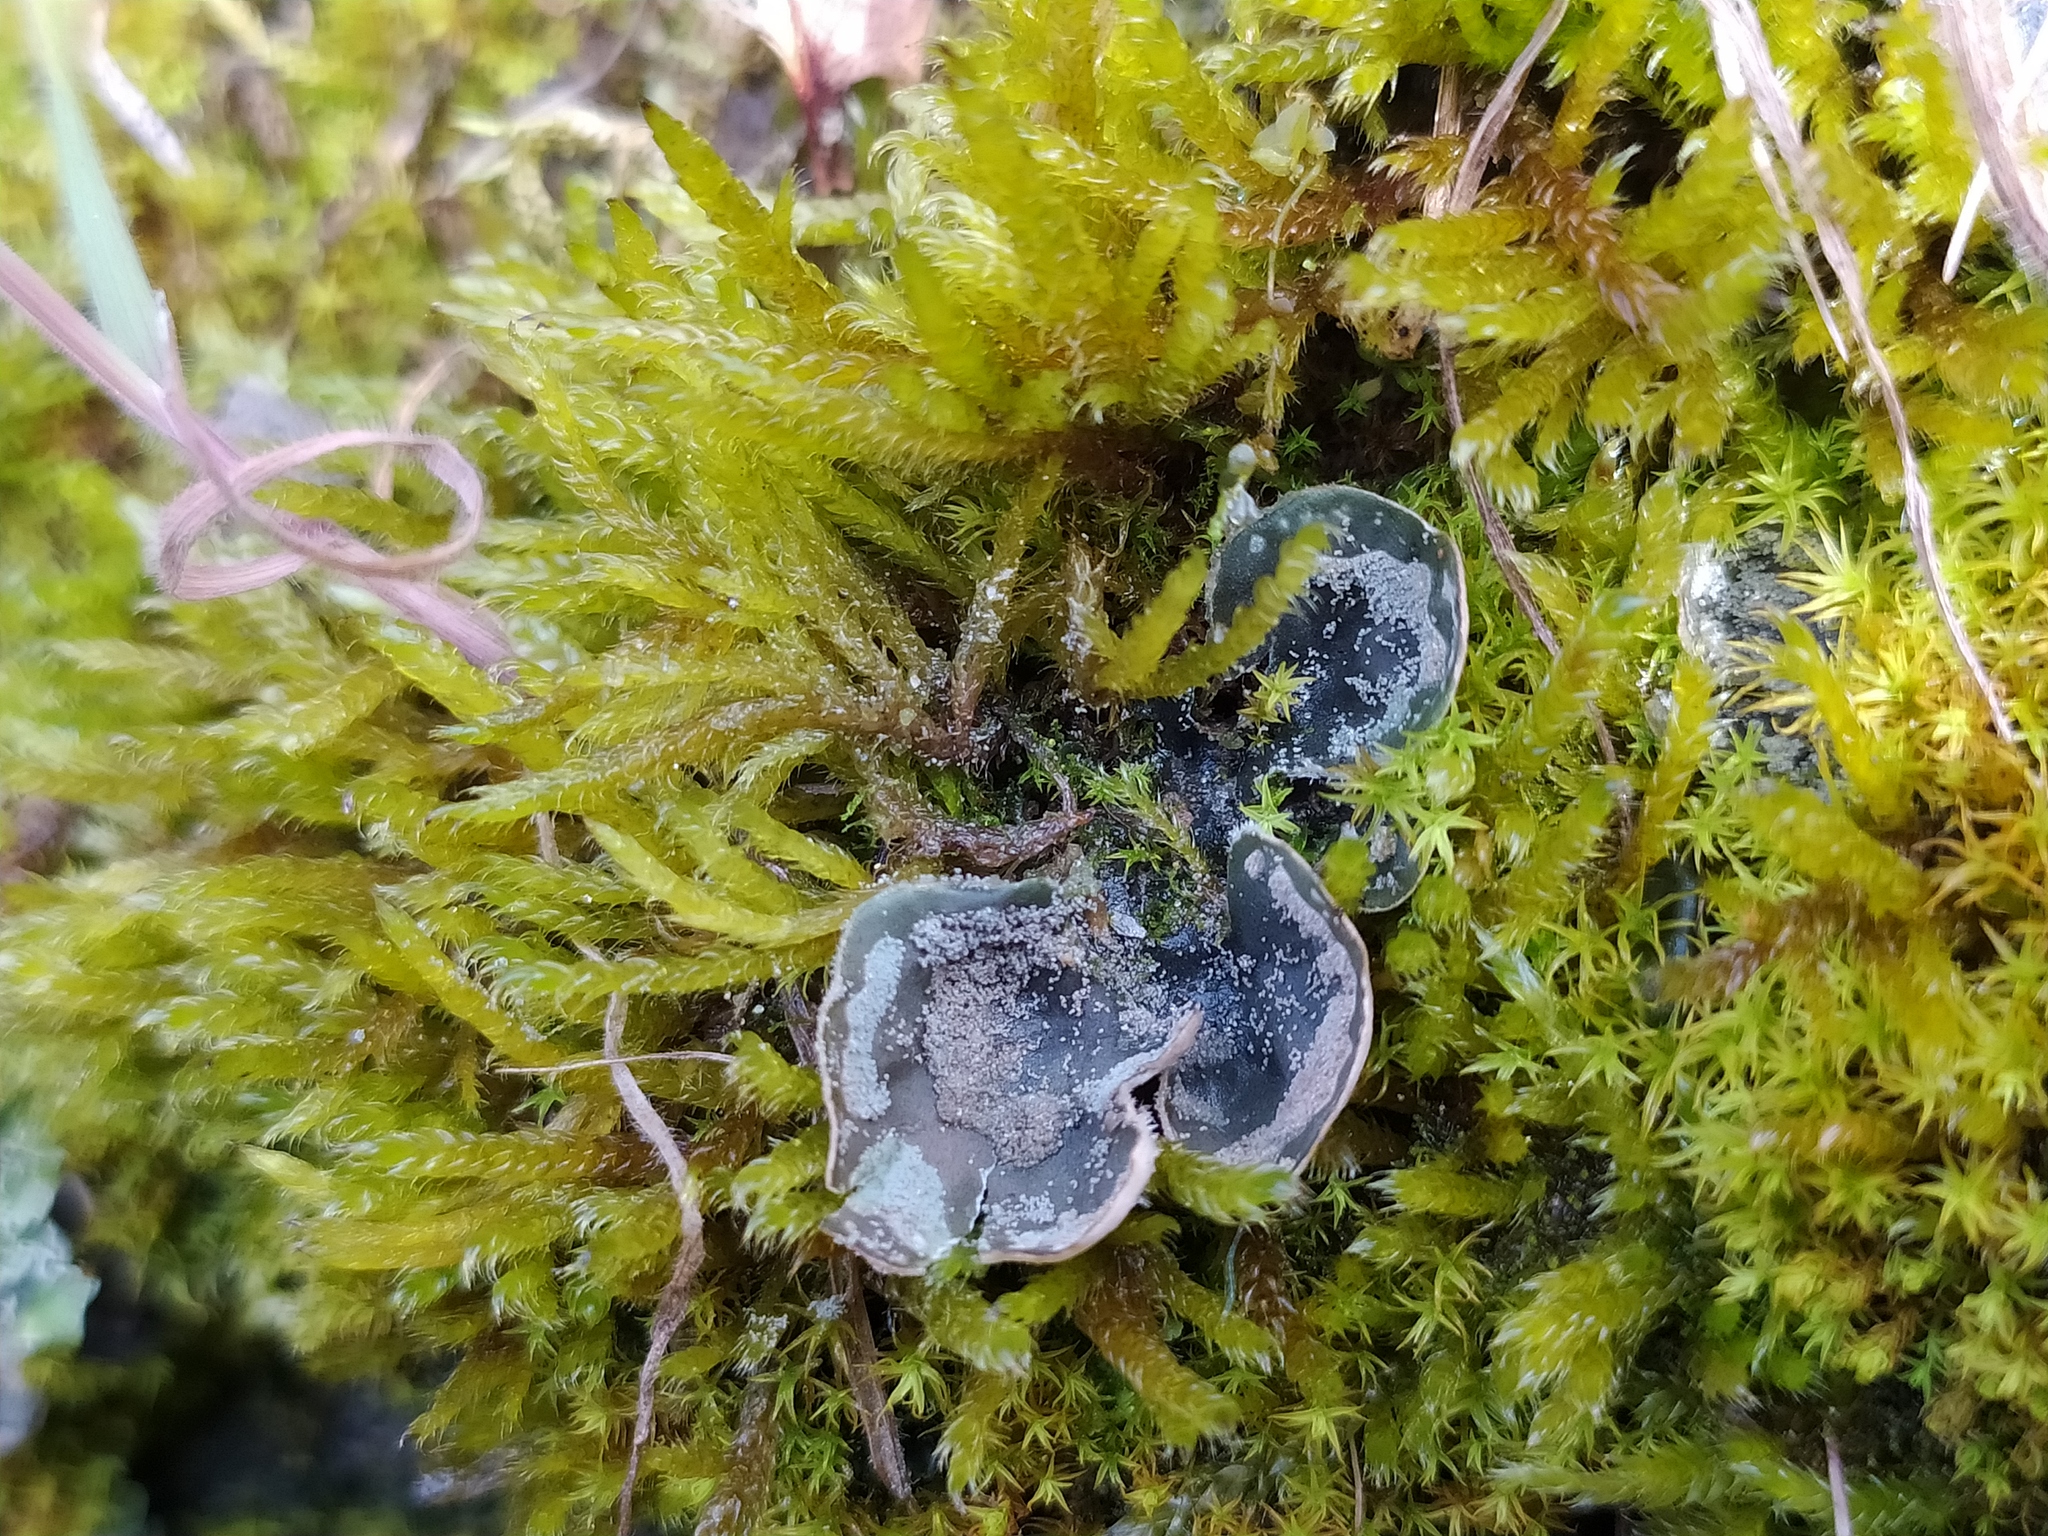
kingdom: Fungi
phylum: Ascomycota
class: Lecanoromycetes
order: Peltigerales
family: Peltigeraceae
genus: Peltigera
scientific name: Peltigera didactyla
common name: Alternating dog lichen
